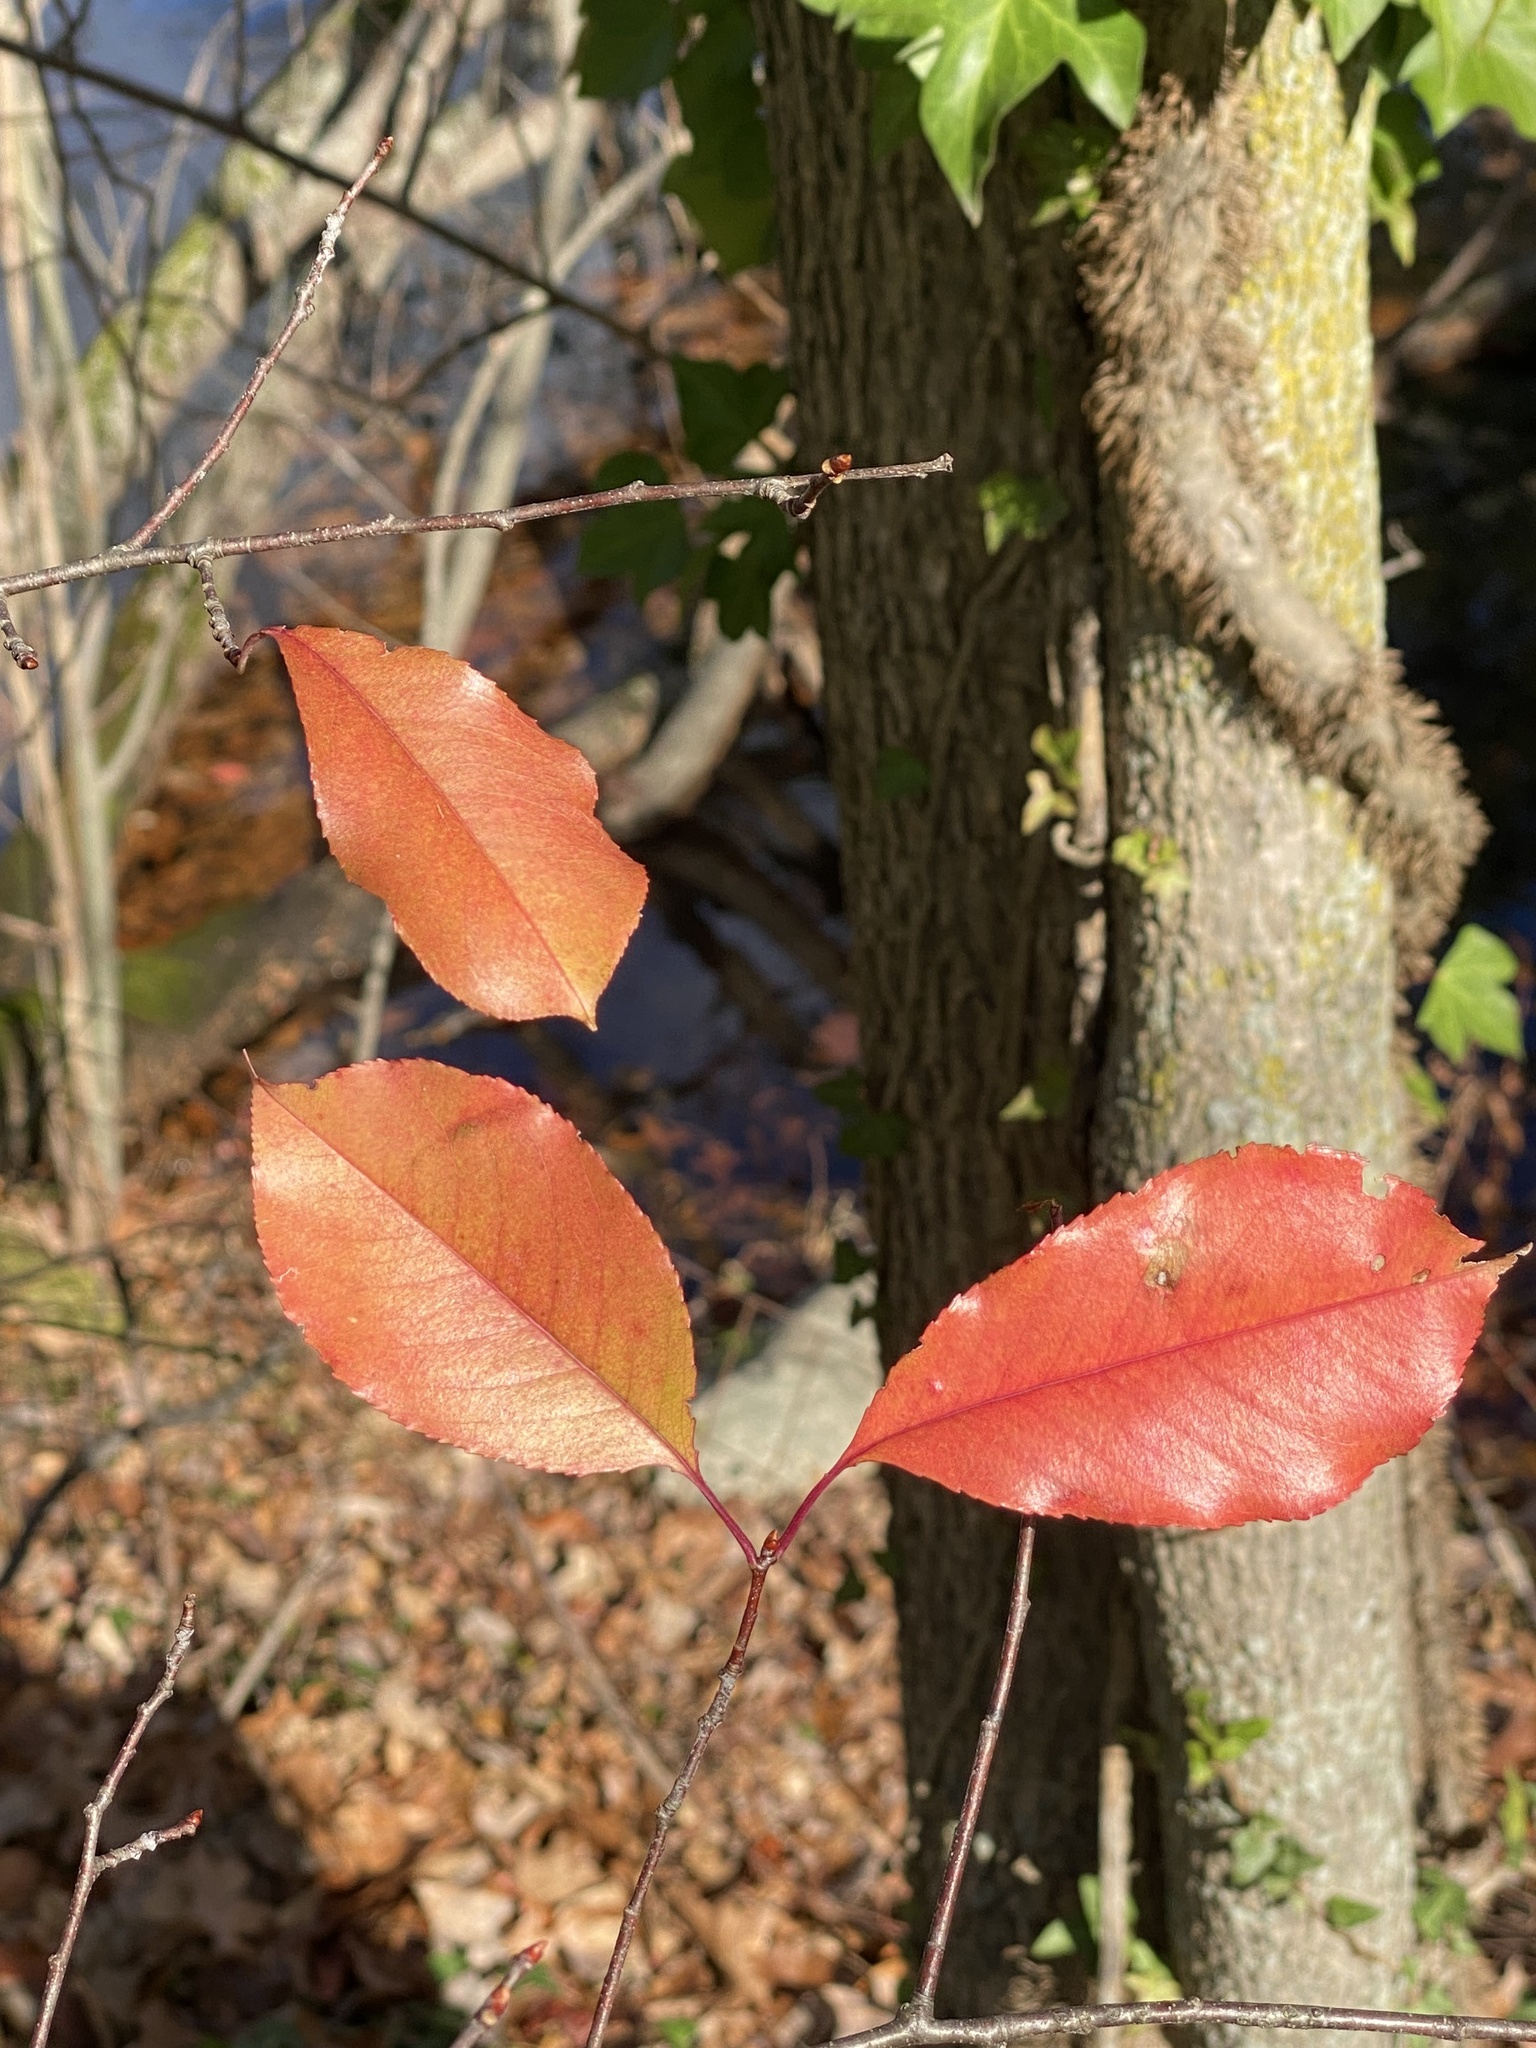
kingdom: Plantae
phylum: Tracheophyta
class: Magnoliopsida
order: Rosales
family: Rosaceae
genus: Prunus
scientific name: Prunus serotina
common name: Black cherry
